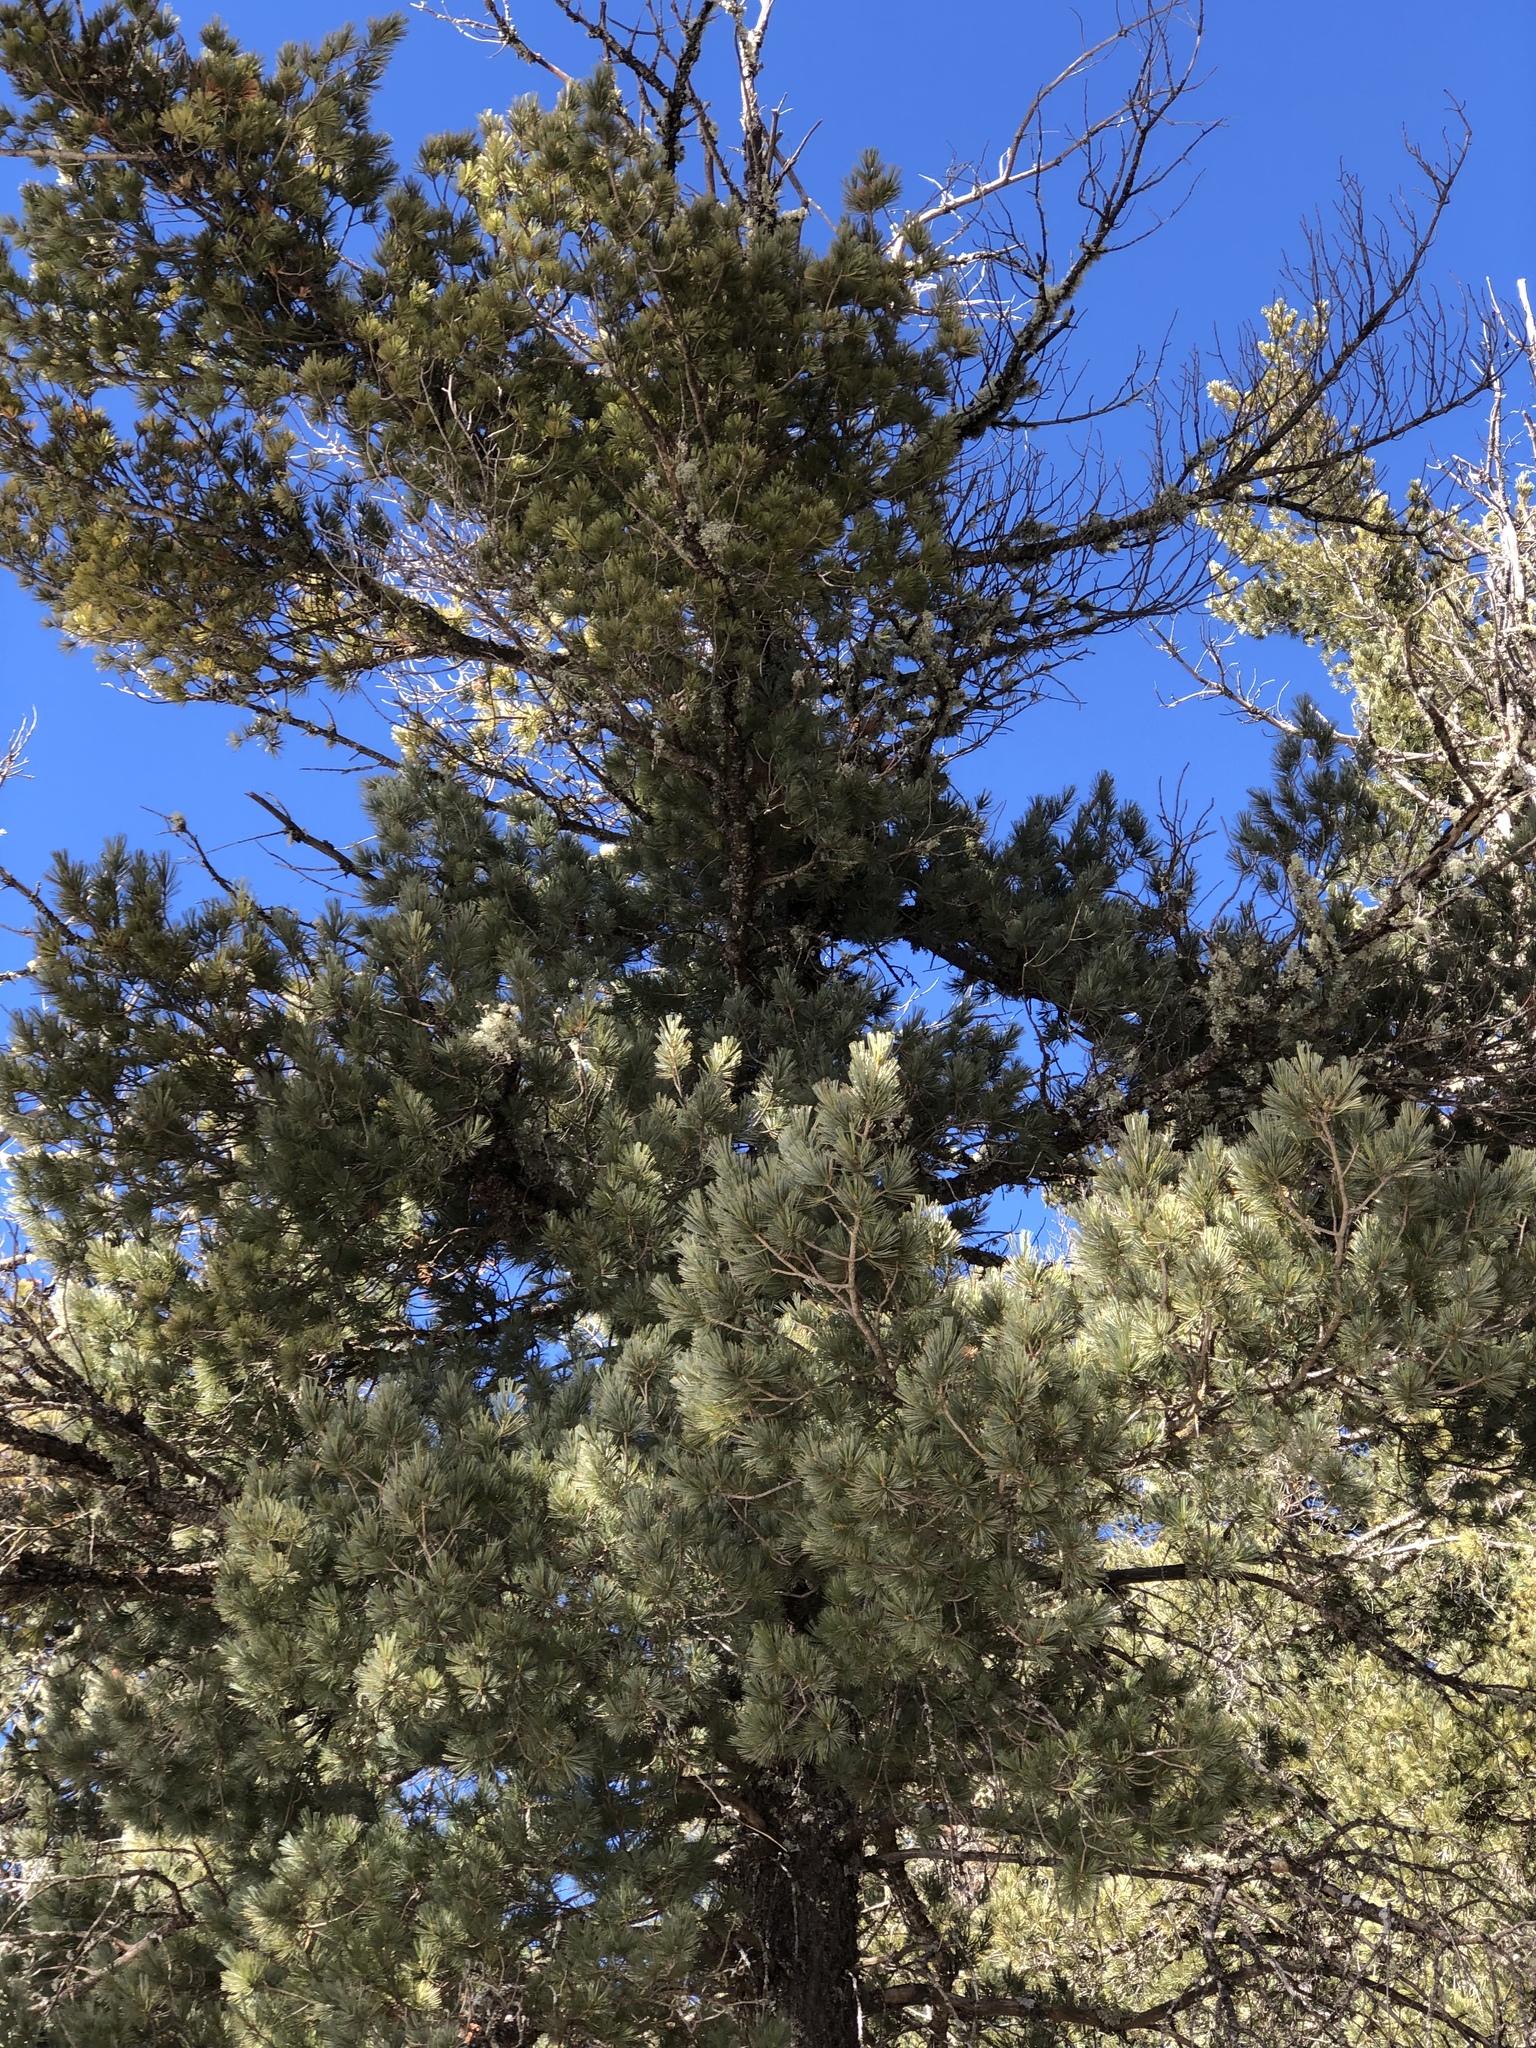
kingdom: Plantae
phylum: Tracheophyta
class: Pinopsida
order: Pinales
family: Pinaceae
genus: Pinus
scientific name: Pinus strobiformis
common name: Southwestern white pine
